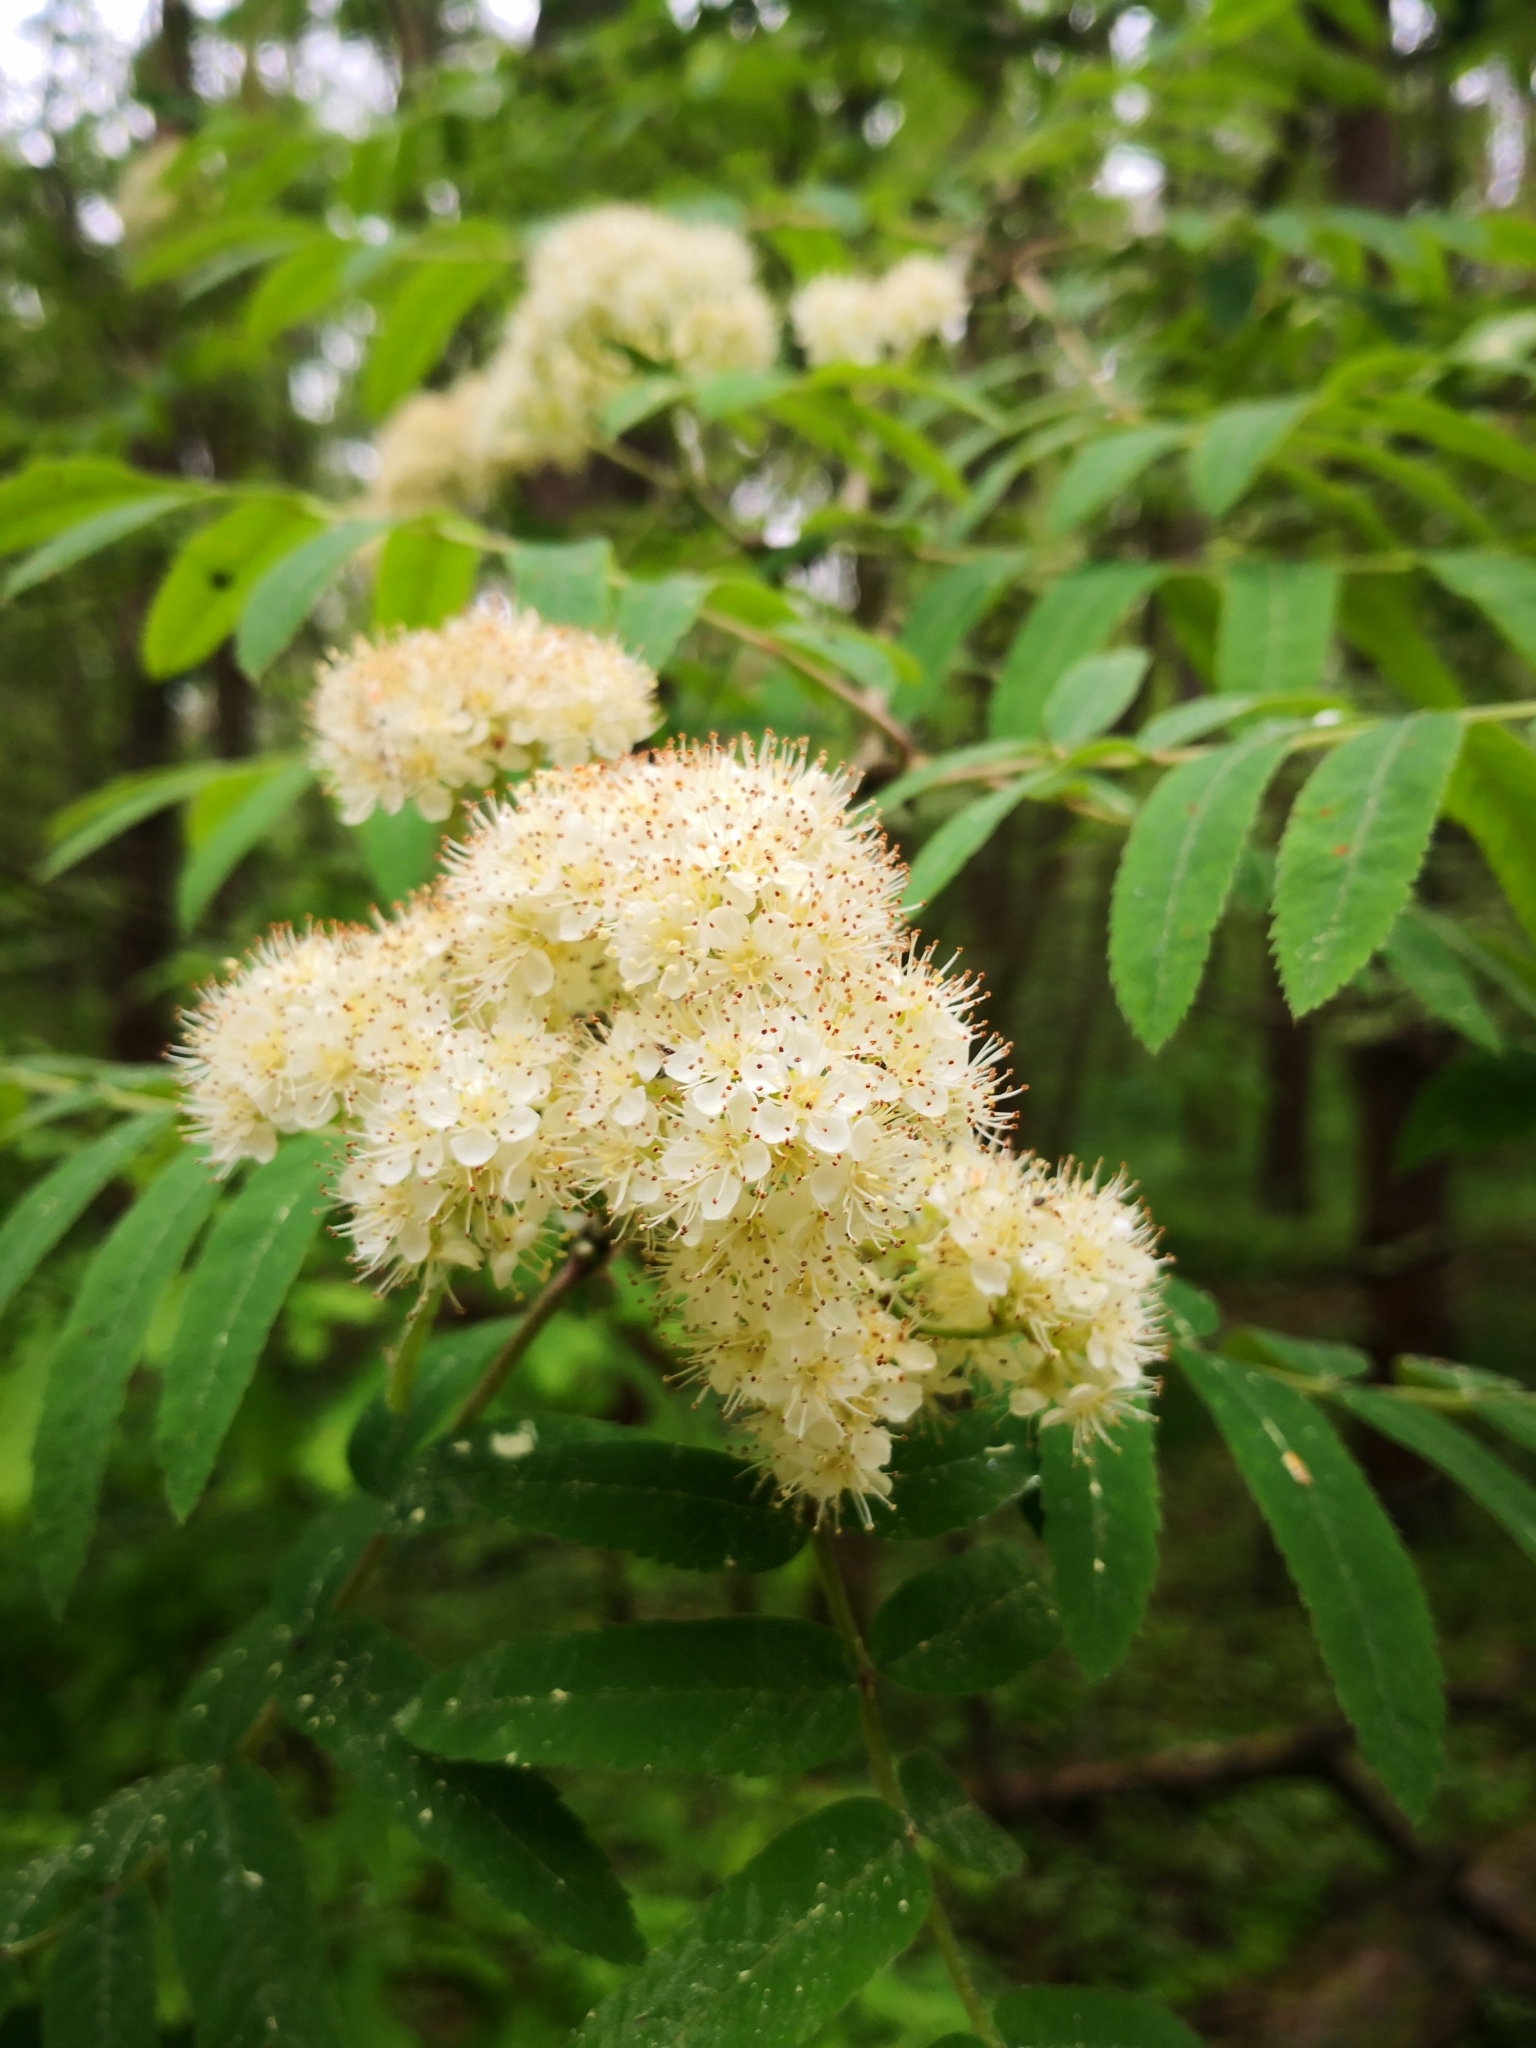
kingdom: Plantae
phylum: Tracheophyta
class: Magnoliopsida
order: Rosales
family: Rosaceae
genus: Sorbus
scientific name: Sorbus aucuparia
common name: Rowan
